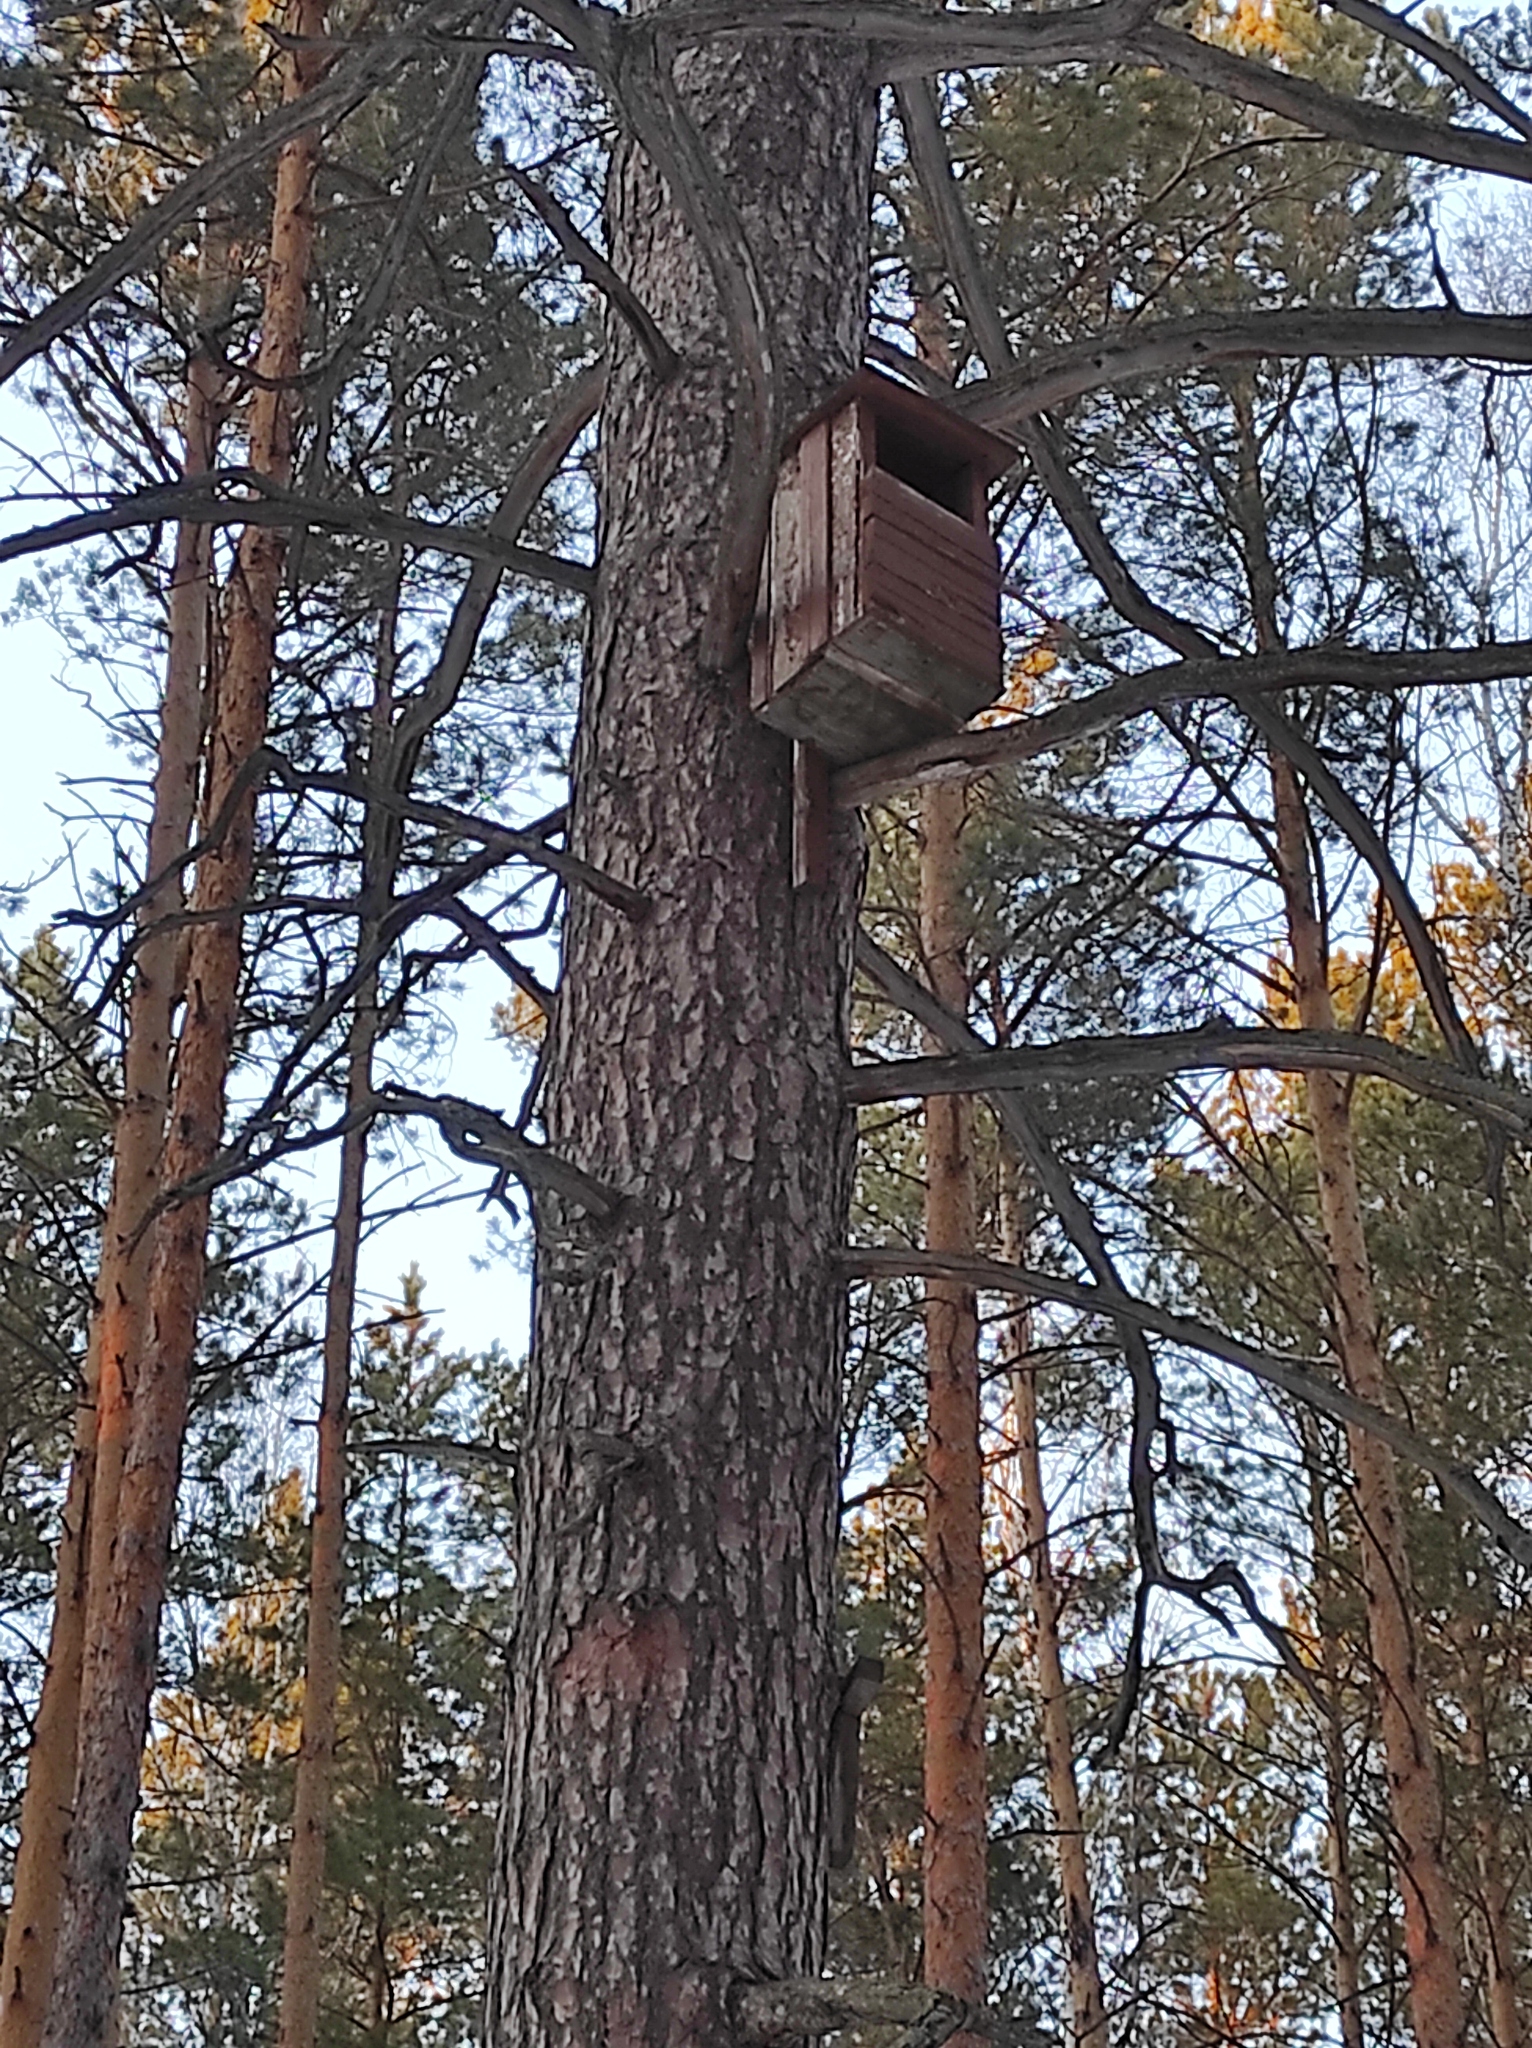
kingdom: Plantae
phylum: Tracheophyta
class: Pinopsida
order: Pinales
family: Pinaceae
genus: Pinus
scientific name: Pinus sylvestris
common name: Scots pine
